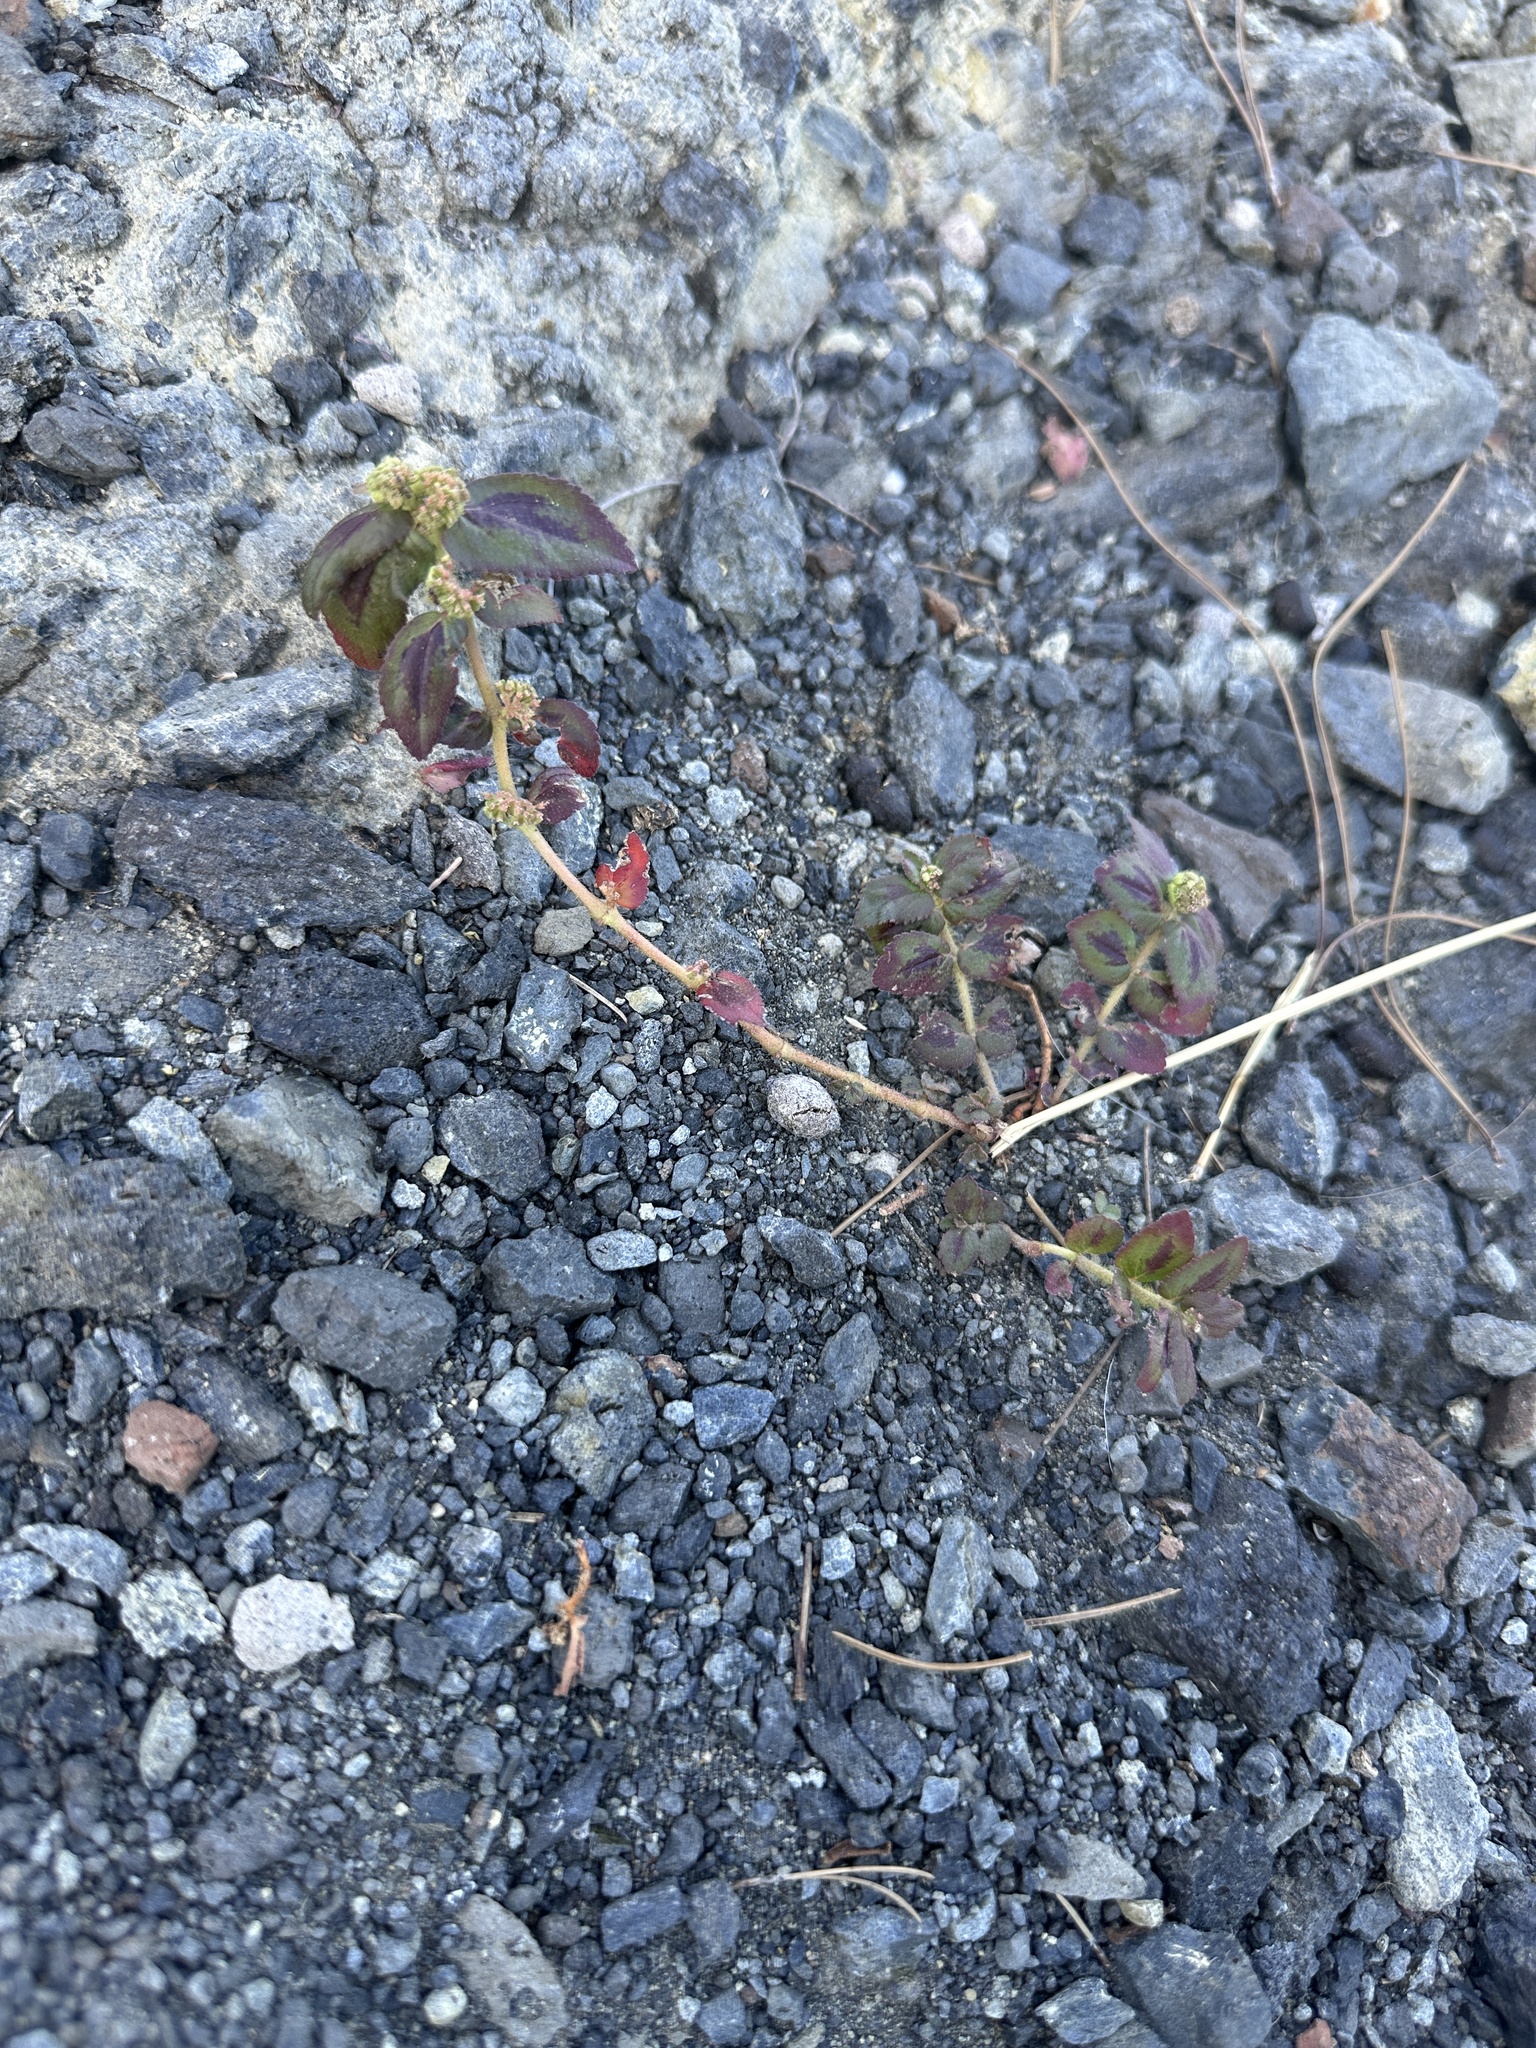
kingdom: Plantae
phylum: Tracheophyta
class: Magnoliopsida
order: Malpighiales
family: Euphorbiaceae
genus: Euphorbia
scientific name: Euphorbia hirta
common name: Pillpod sandmat
